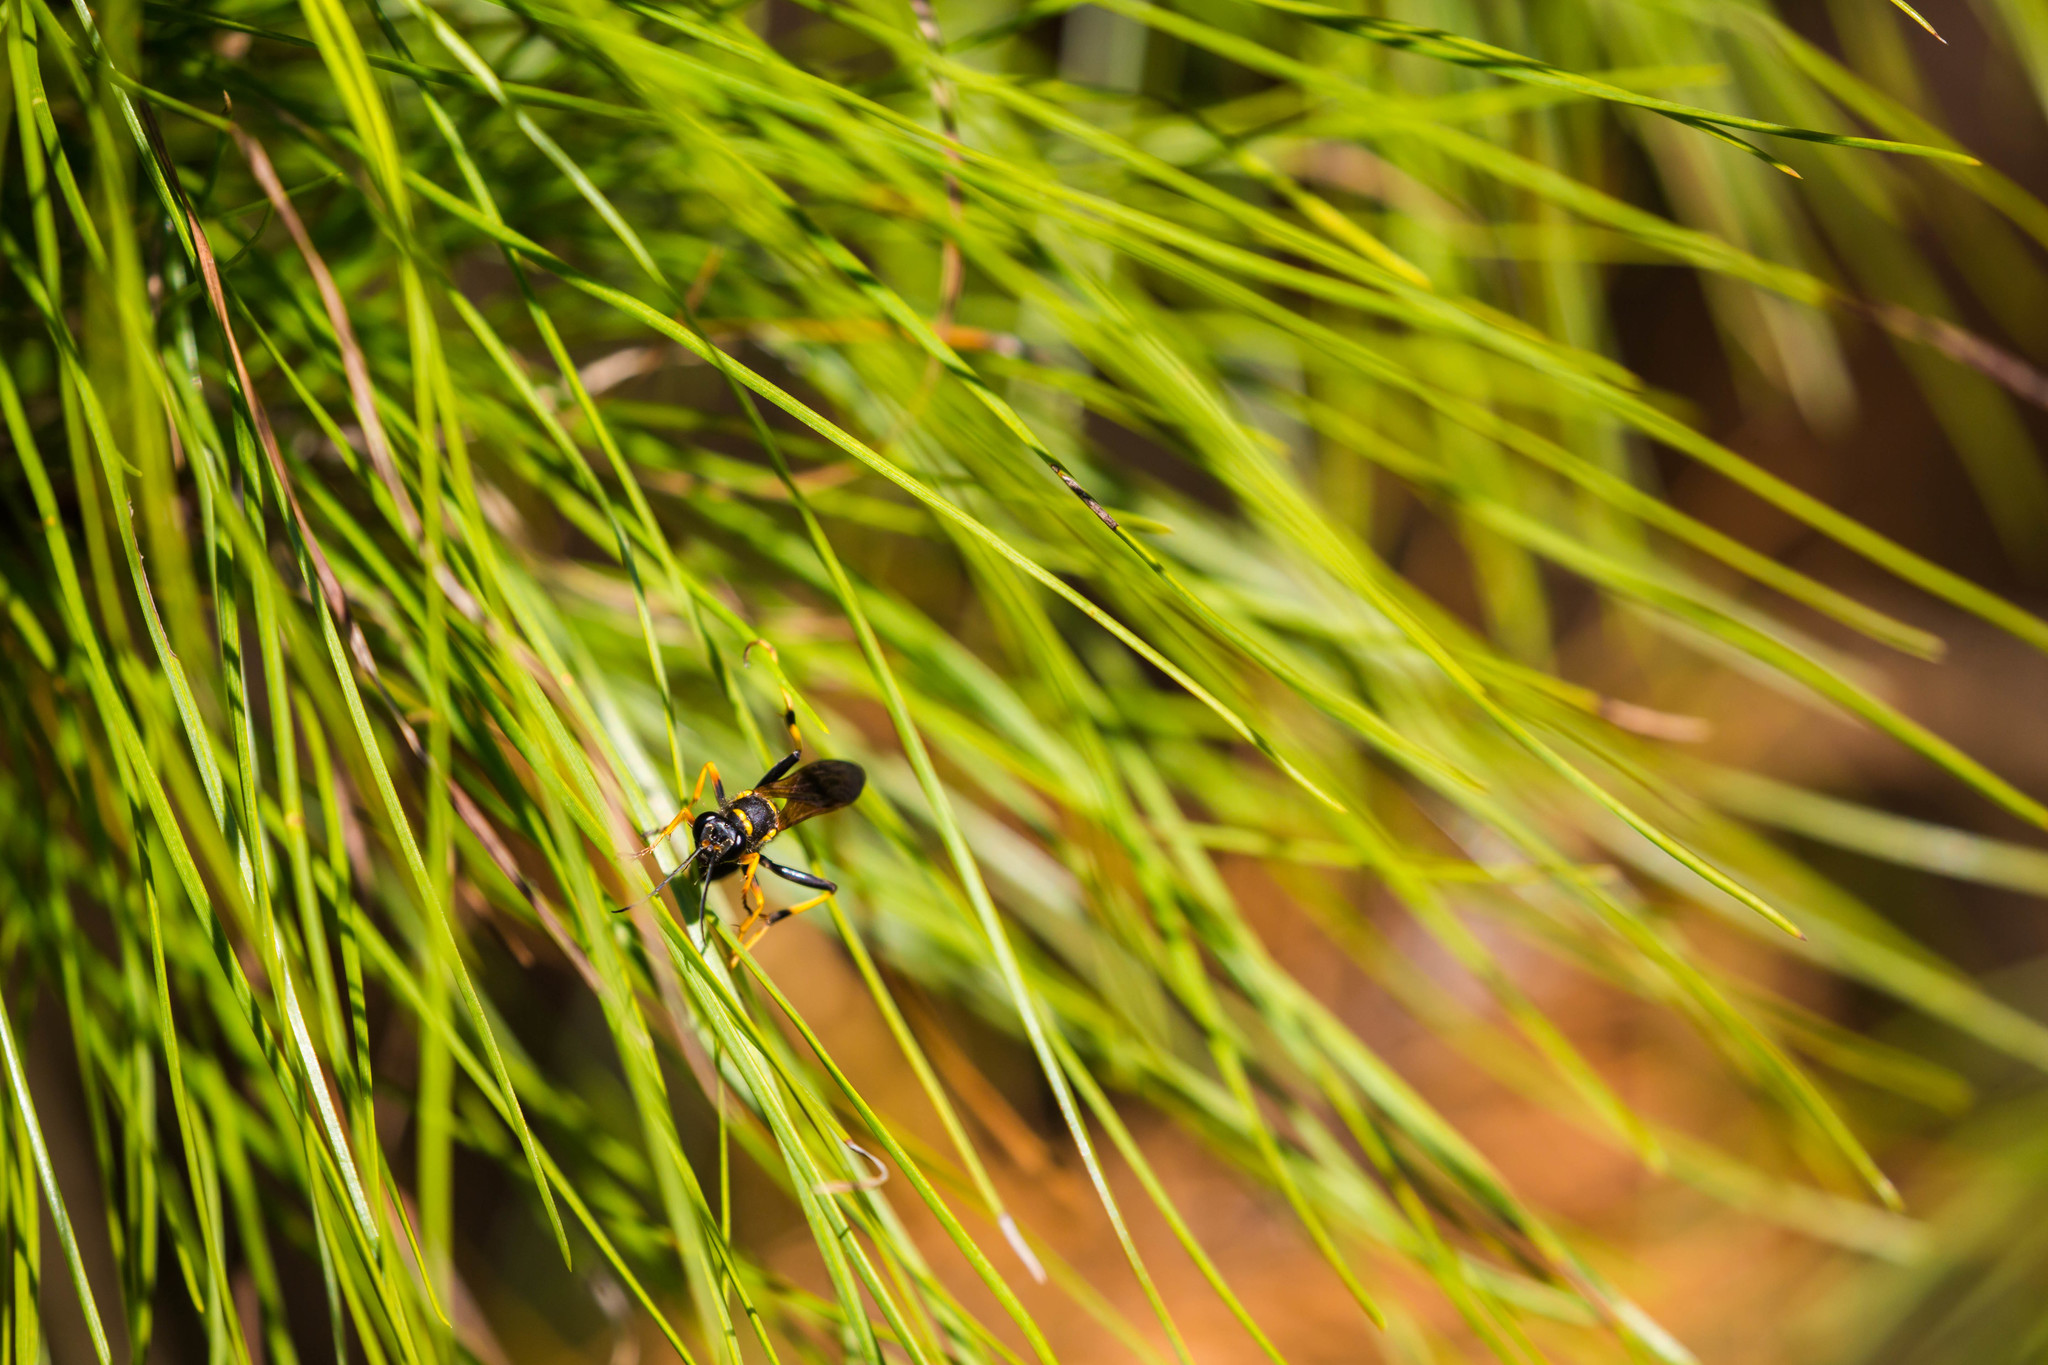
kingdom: Animalia
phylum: Arthropoda
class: Insecta
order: Hymenoptera
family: Sphecidae
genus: Sceliphron
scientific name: Sceliphron caementarium
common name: Mud dauber
